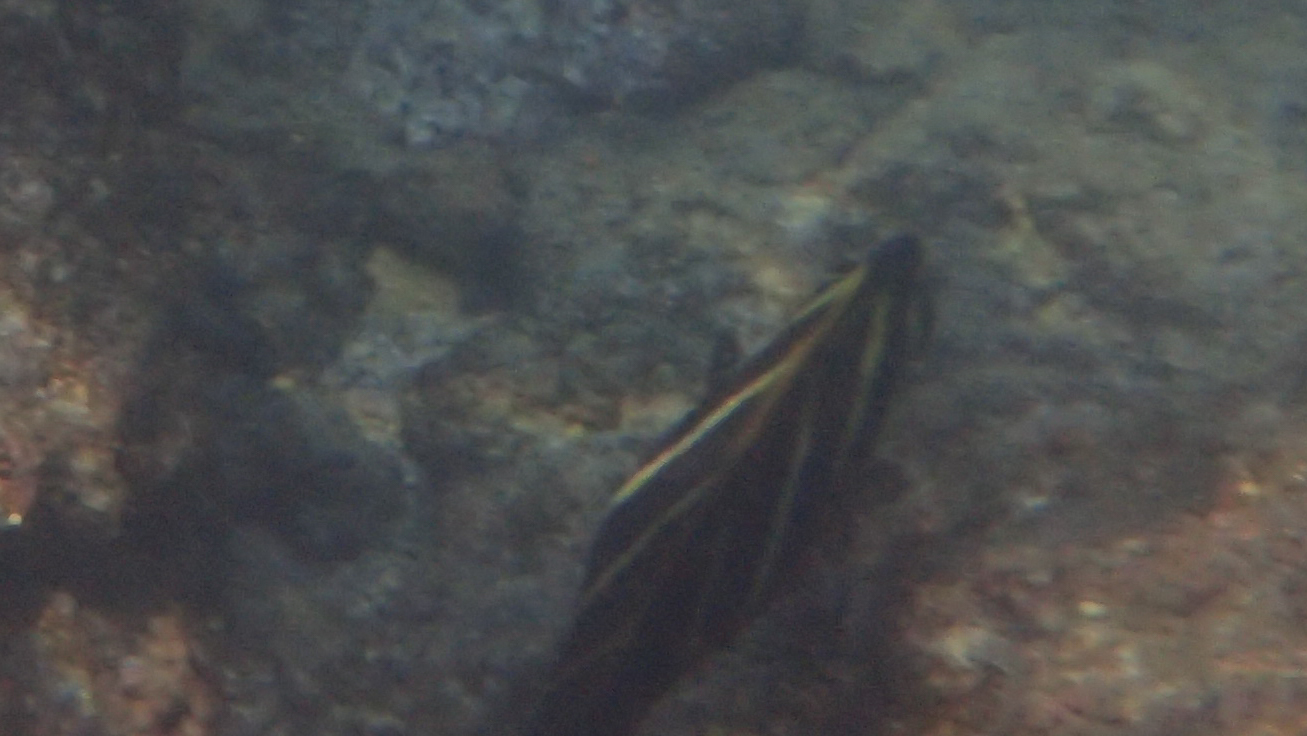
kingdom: Animalia
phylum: Chordata
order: Perciformes
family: Acanthuridae
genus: Zebrasoma
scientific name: Zebrasoma veliferum
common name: Sailfin surgeonfish
